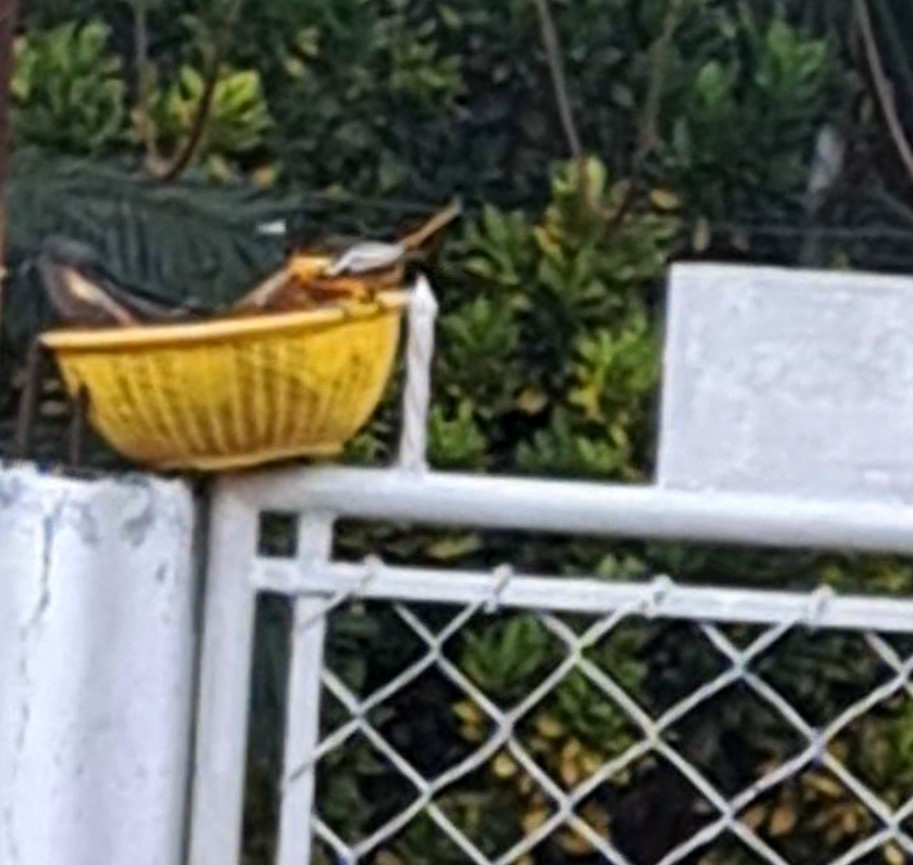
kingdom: Animalia
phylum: Chordata
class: Aves
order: Passeriformes
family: Icteridae
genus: Icterus
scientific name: Icterus
